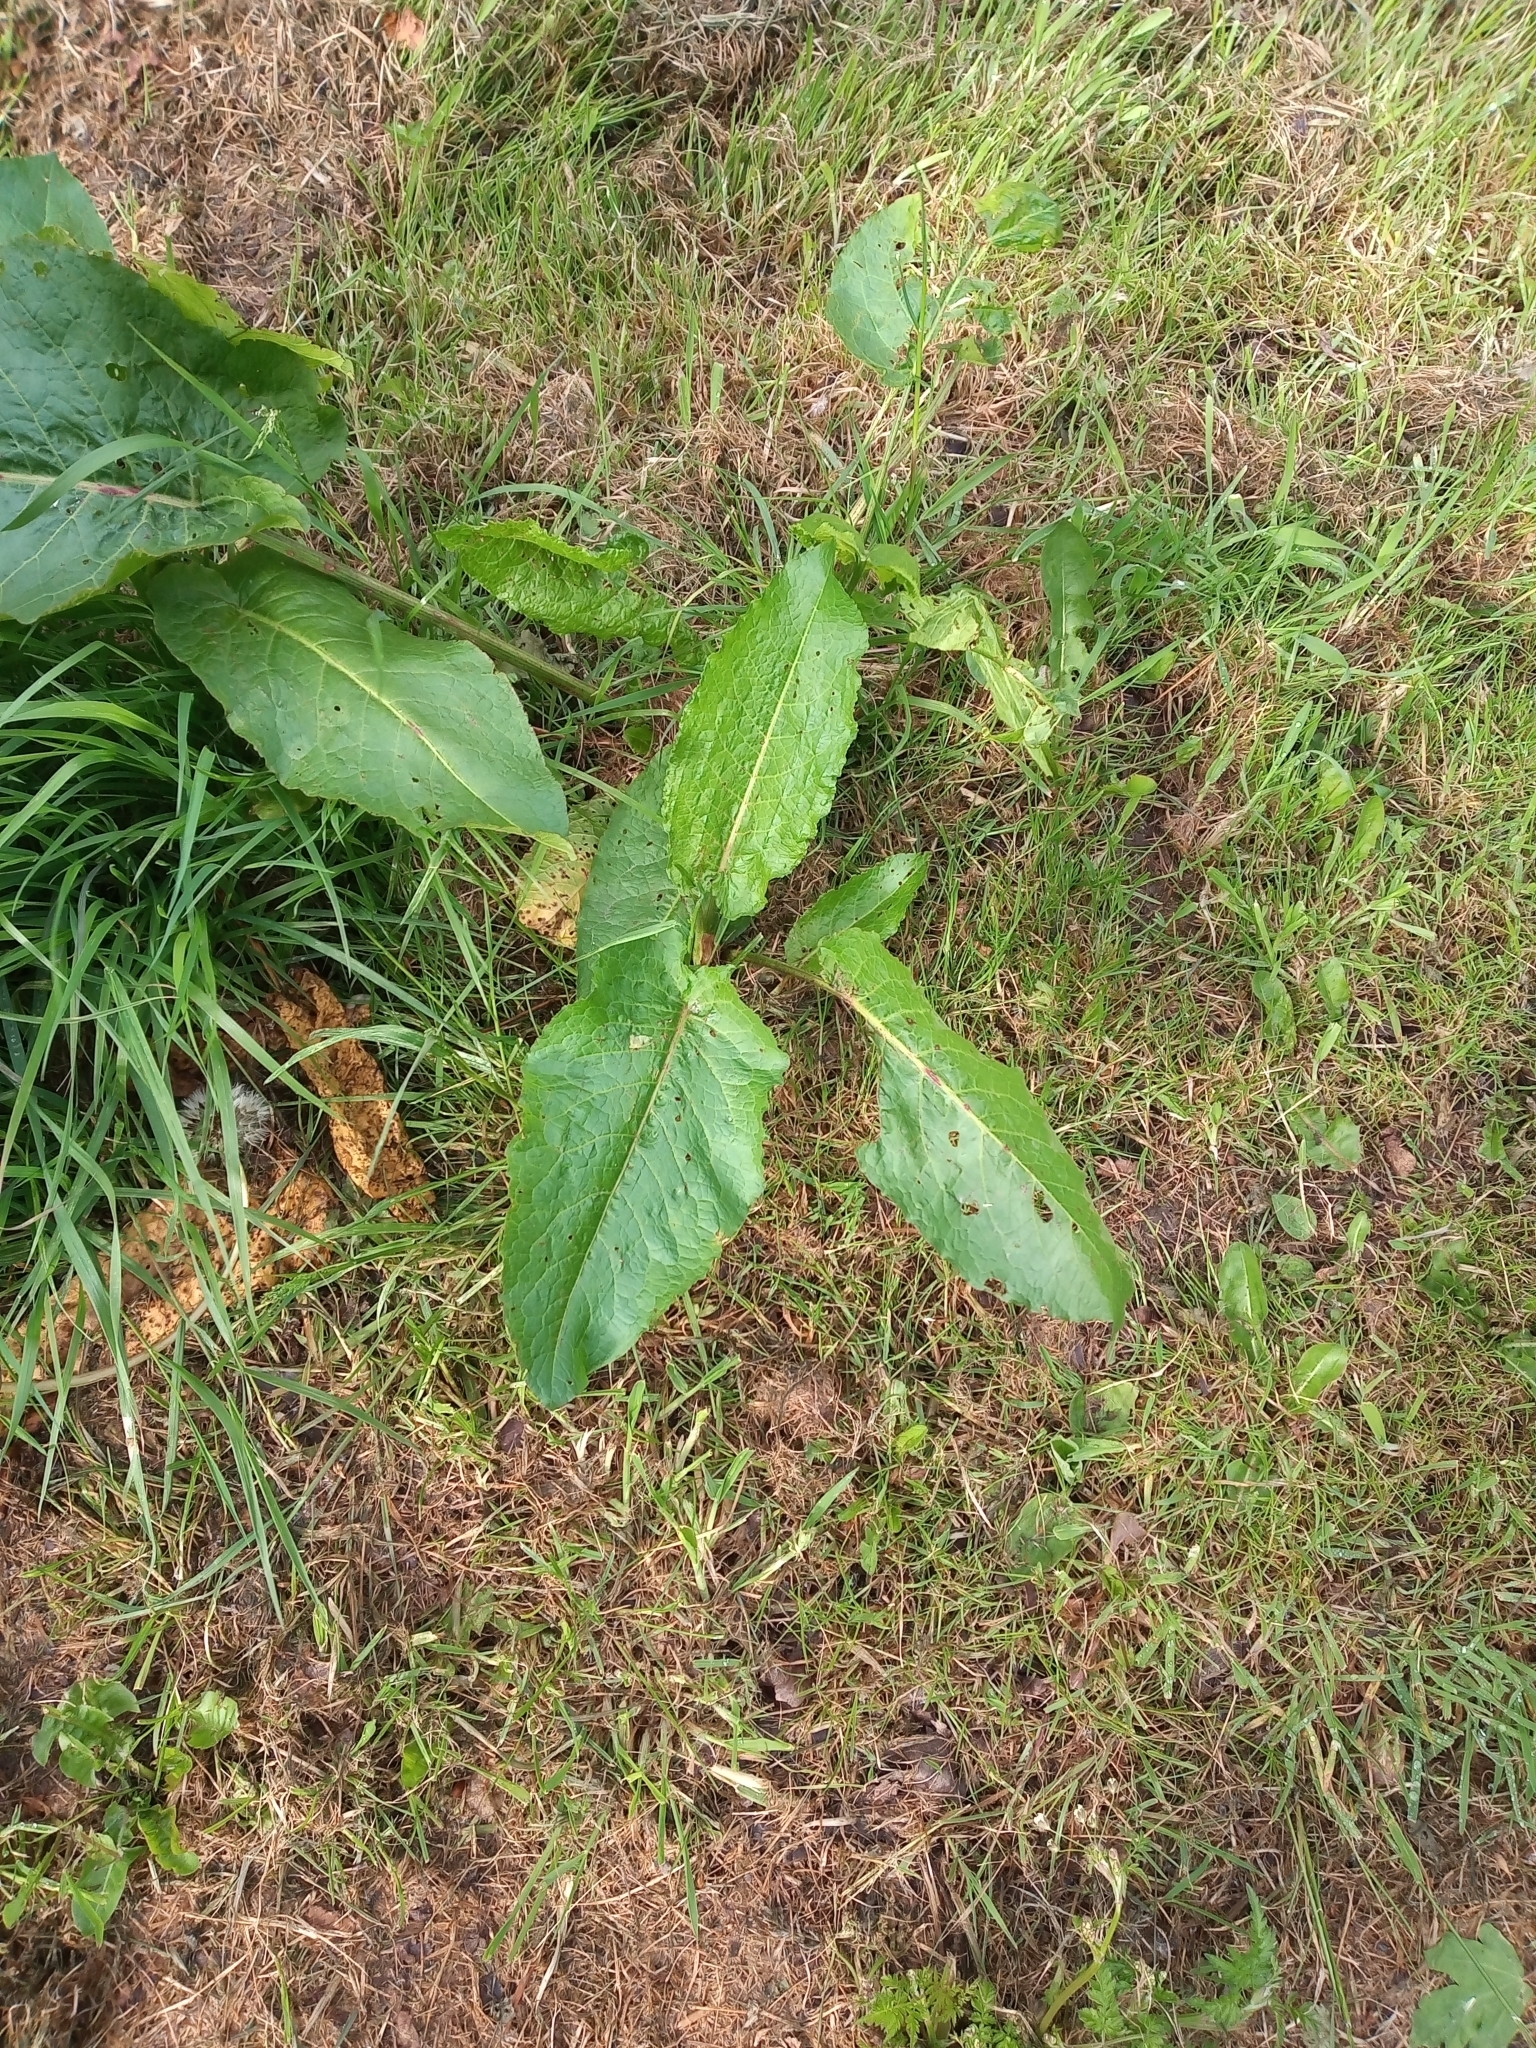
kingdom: Plantae
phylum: Tracheophyta
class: Magnoliopsida
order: Caryophyllales
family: Polygonaceae
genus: Rumex
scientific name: Rumex obtusifolius
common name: Bitter dock
